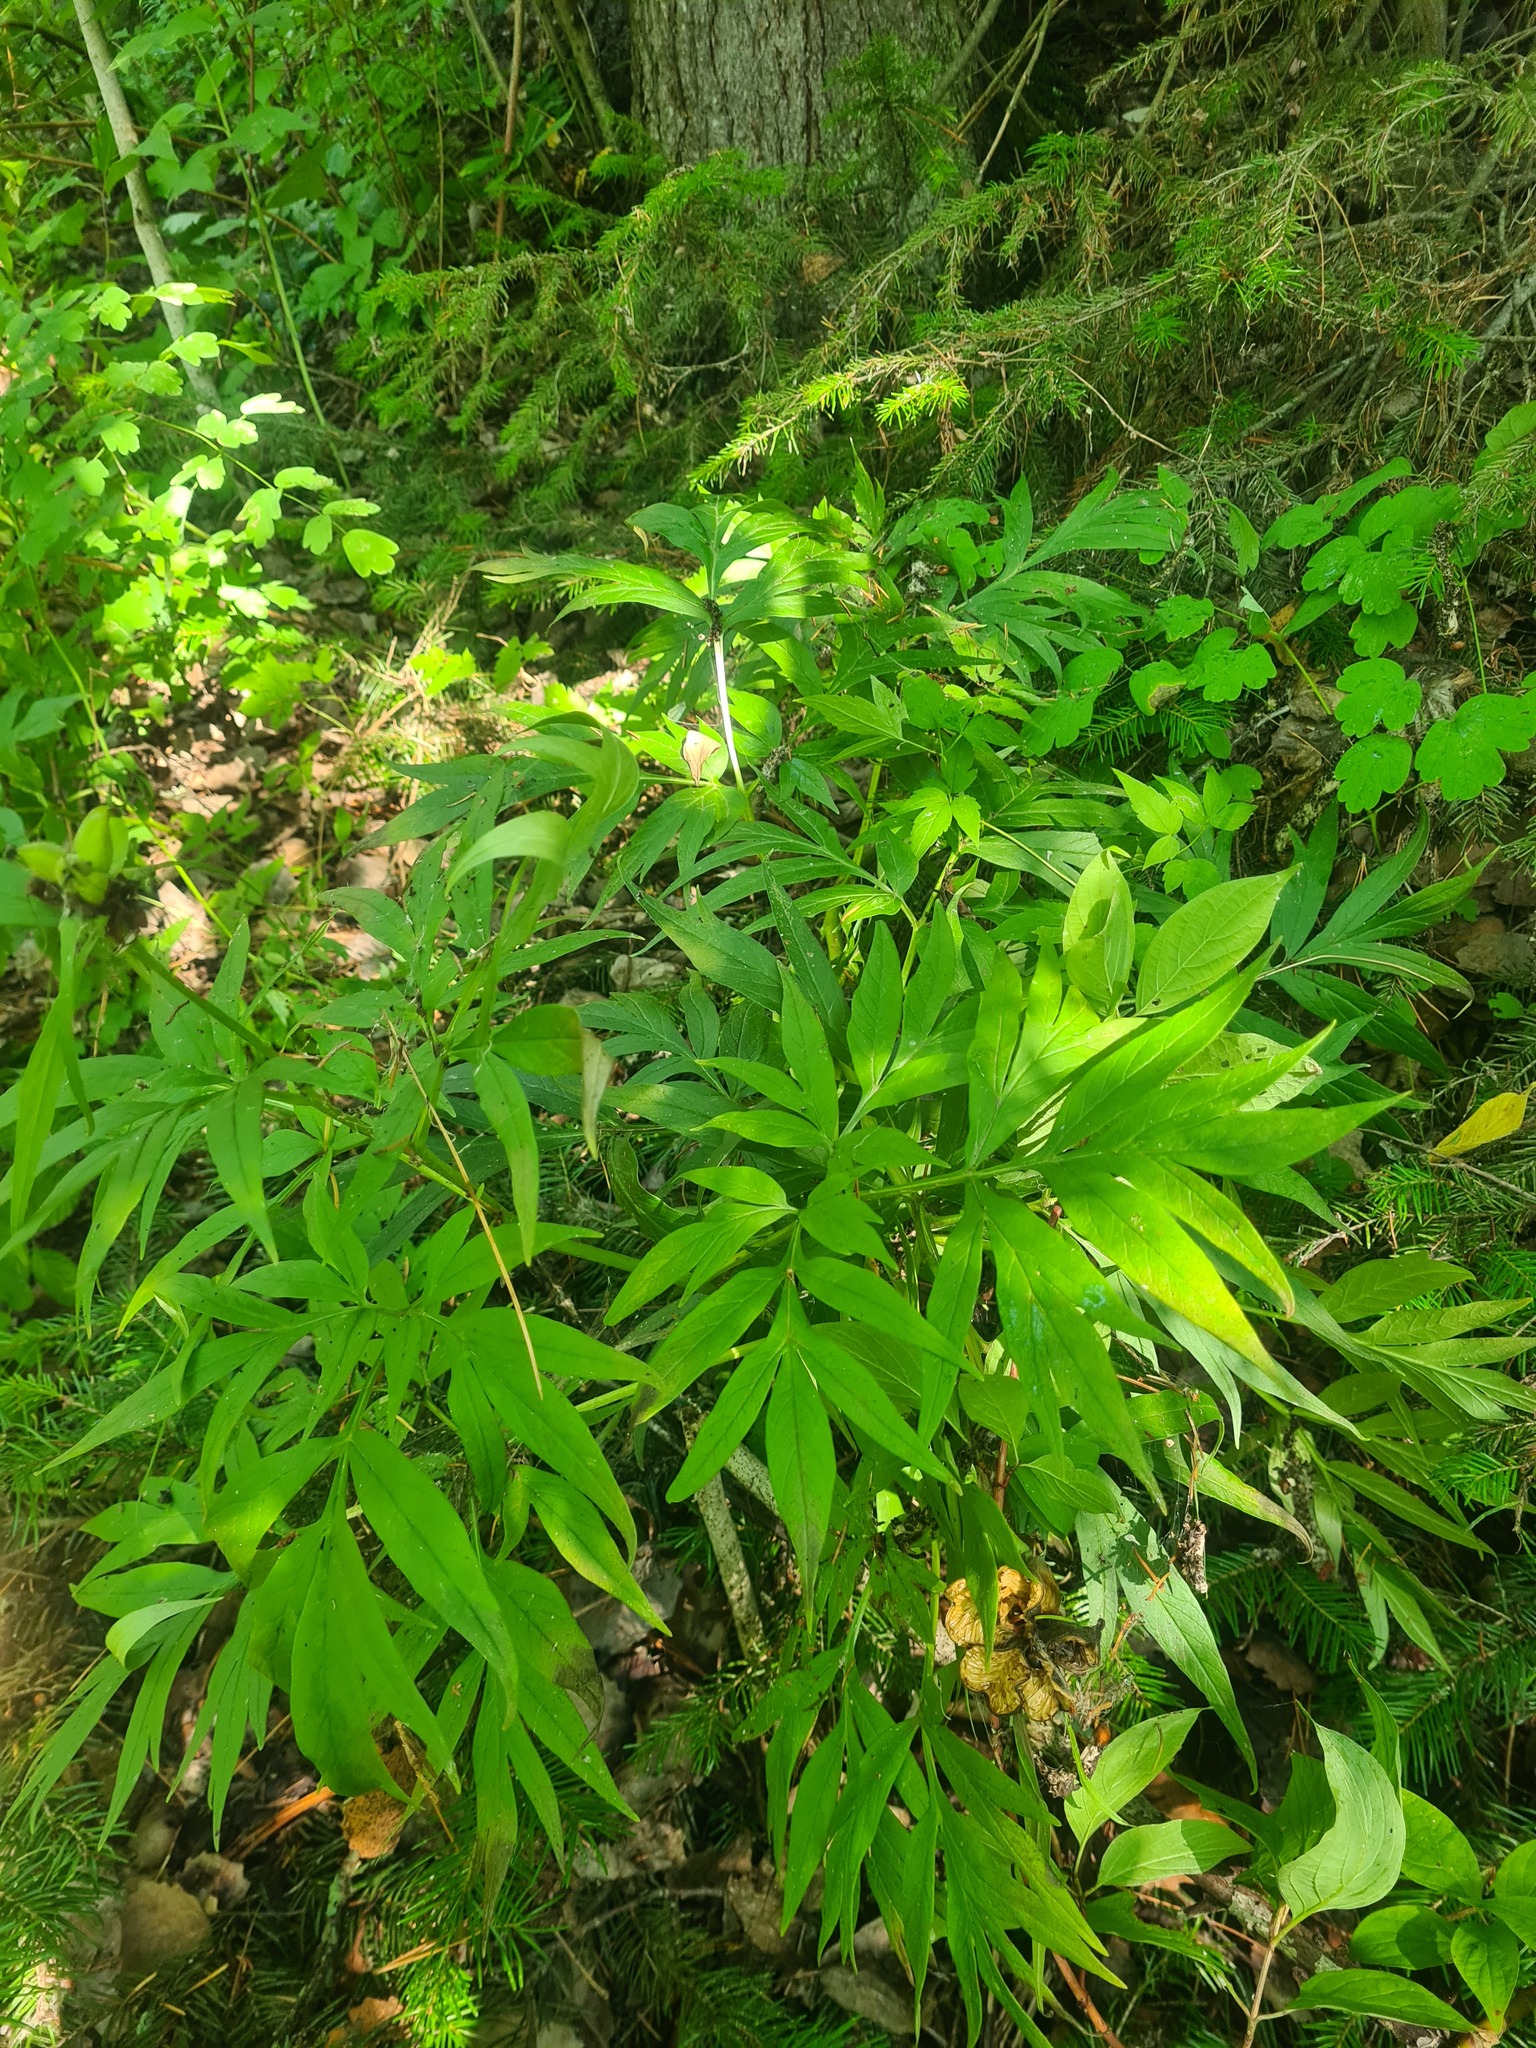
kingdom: Plantae
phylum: Tracheophyta
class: Magnoliopsida
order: Saxifragales
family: Paeoniaceae
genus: Paeonia
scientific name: Paeonia anomala
